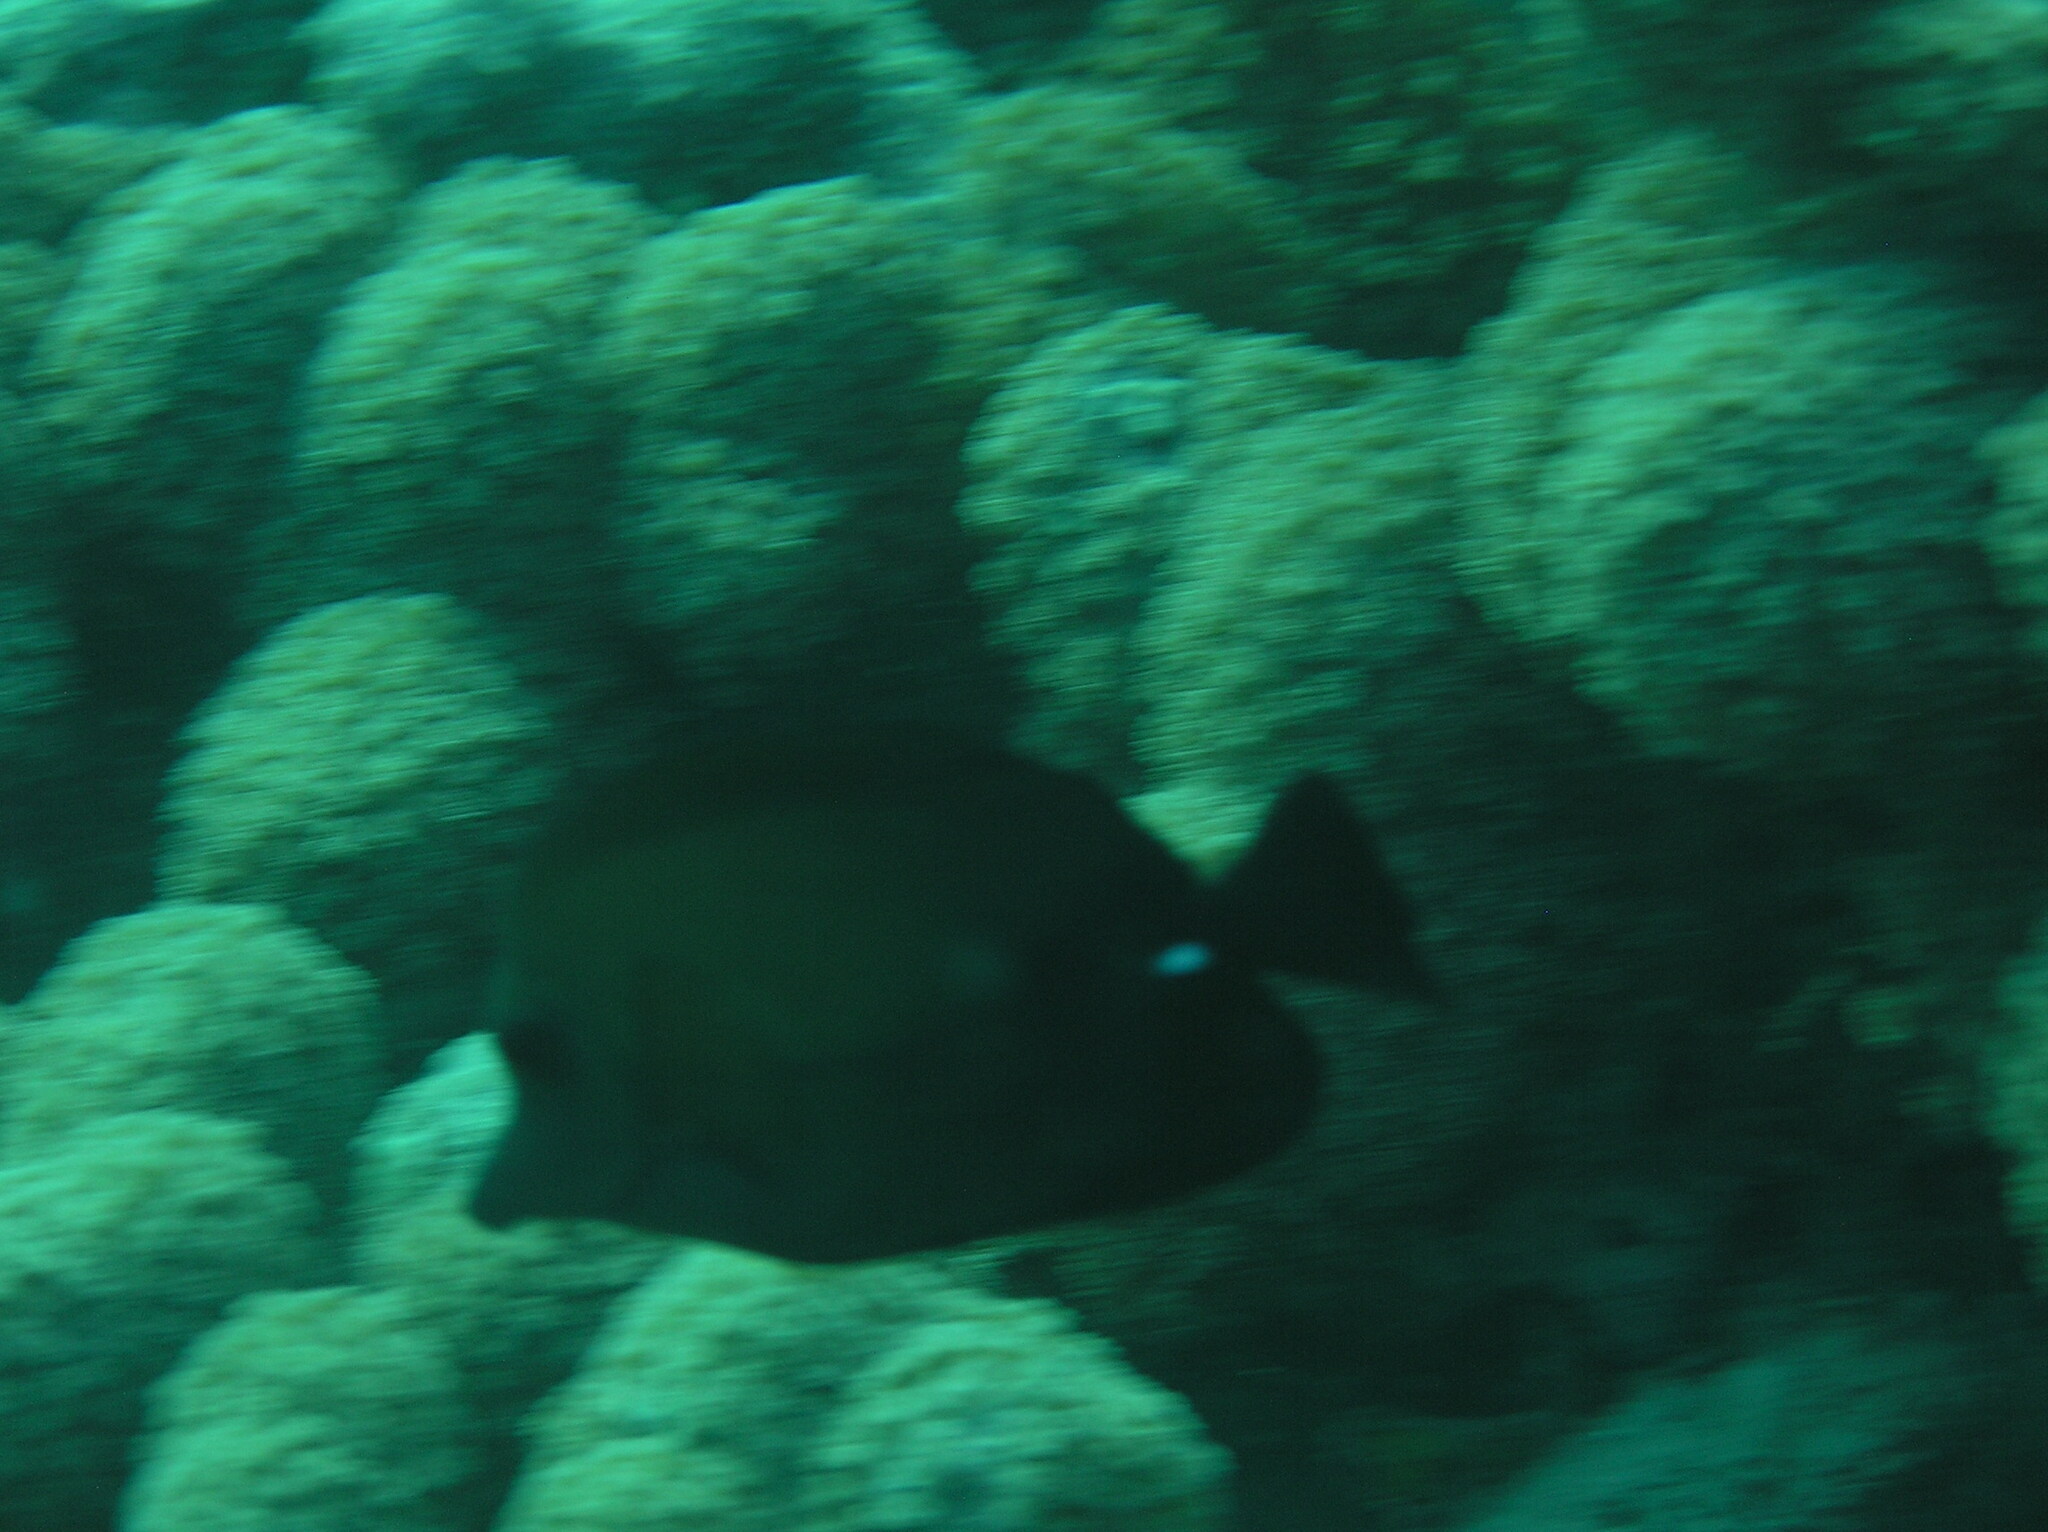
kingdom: Animalia
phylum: Chordata
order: Perciformes
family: Acanthuridae
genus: Zebrasoma
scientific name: Zebrasoma scopas
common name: Twotone tang
